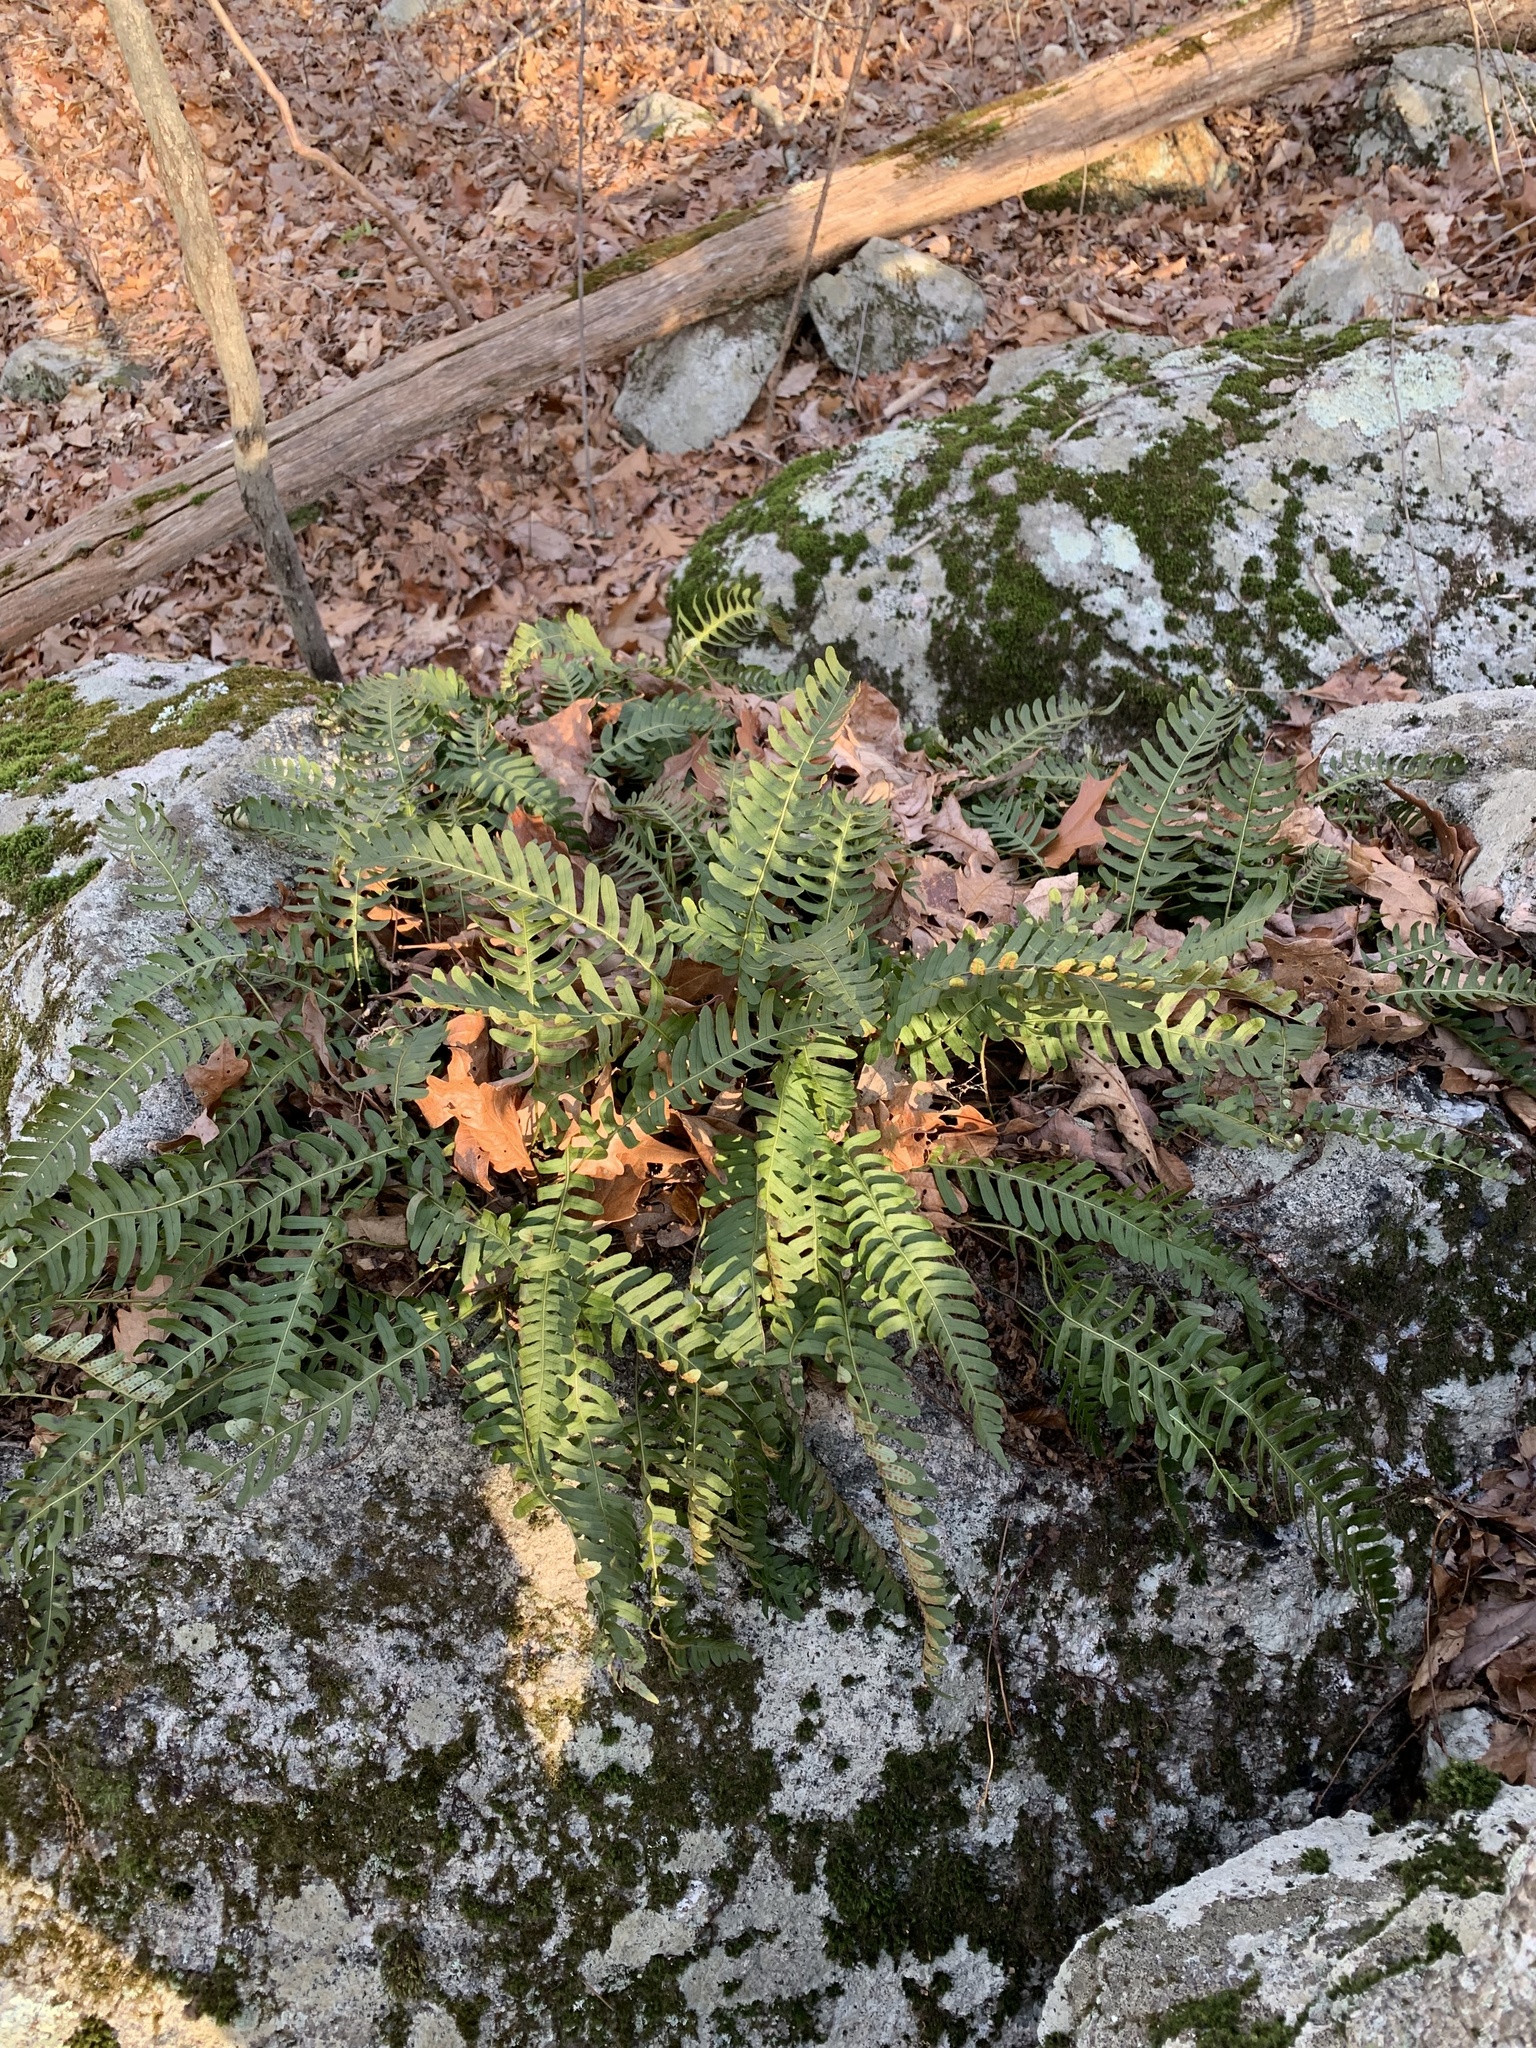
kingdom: Plantae
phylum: Tracheophyta
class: Polypodiopsida
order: Polypodiales
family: Polypodiaceae
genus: Polypodium
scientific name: Polypodium virginianum
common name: American wall fern
